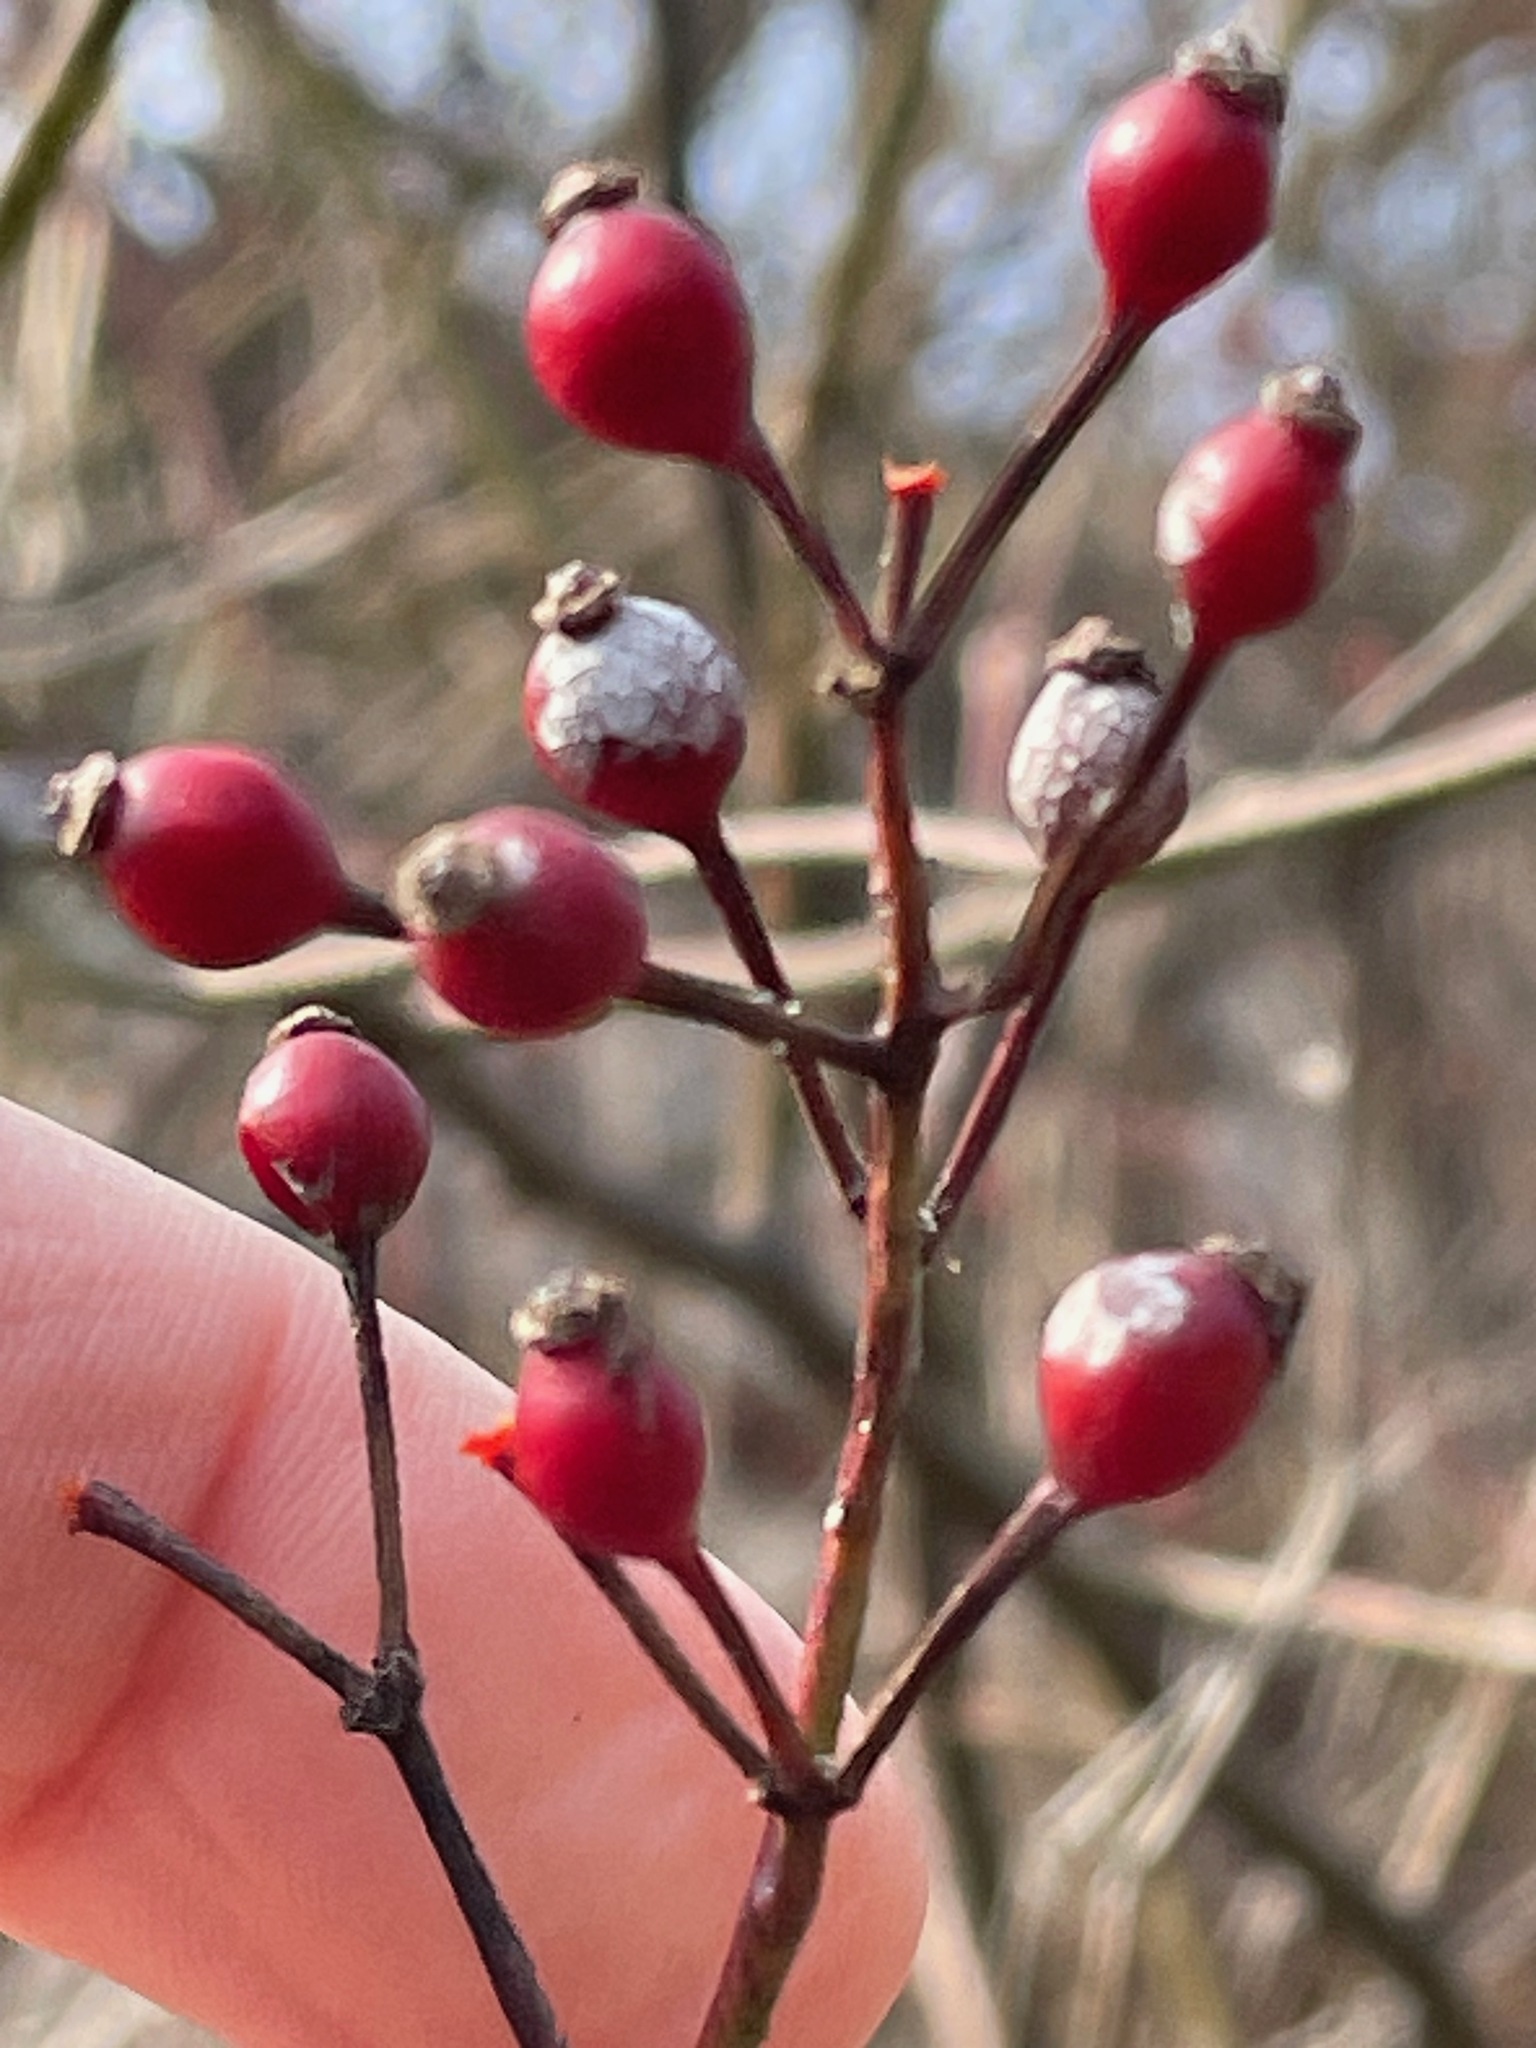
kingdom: Plantae
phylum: Tracheophyta
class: Magnoliopsida
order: Rosales
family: Rosaceae
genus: Rosa
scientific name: Rosa multiflora
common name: Multiflora rose
